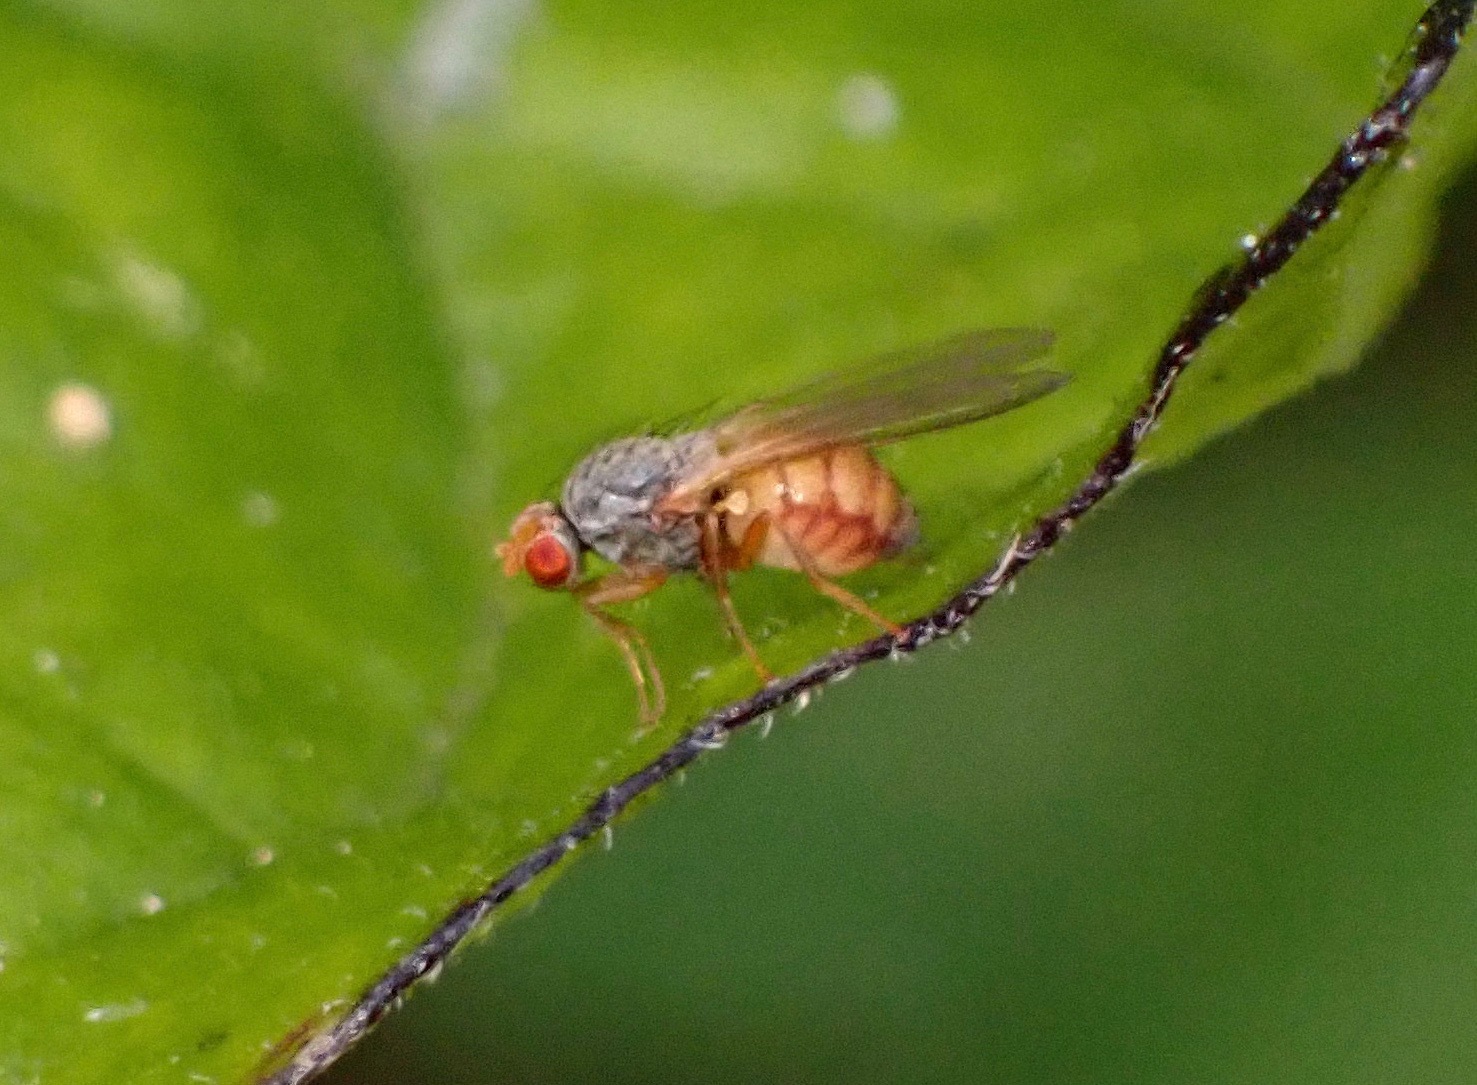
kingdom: Animalia
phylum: Arthropoda
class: Insecta
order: Diptera
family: Heleomyzidae
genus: Trixoscelis
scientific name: Trixoscelis melanderi
